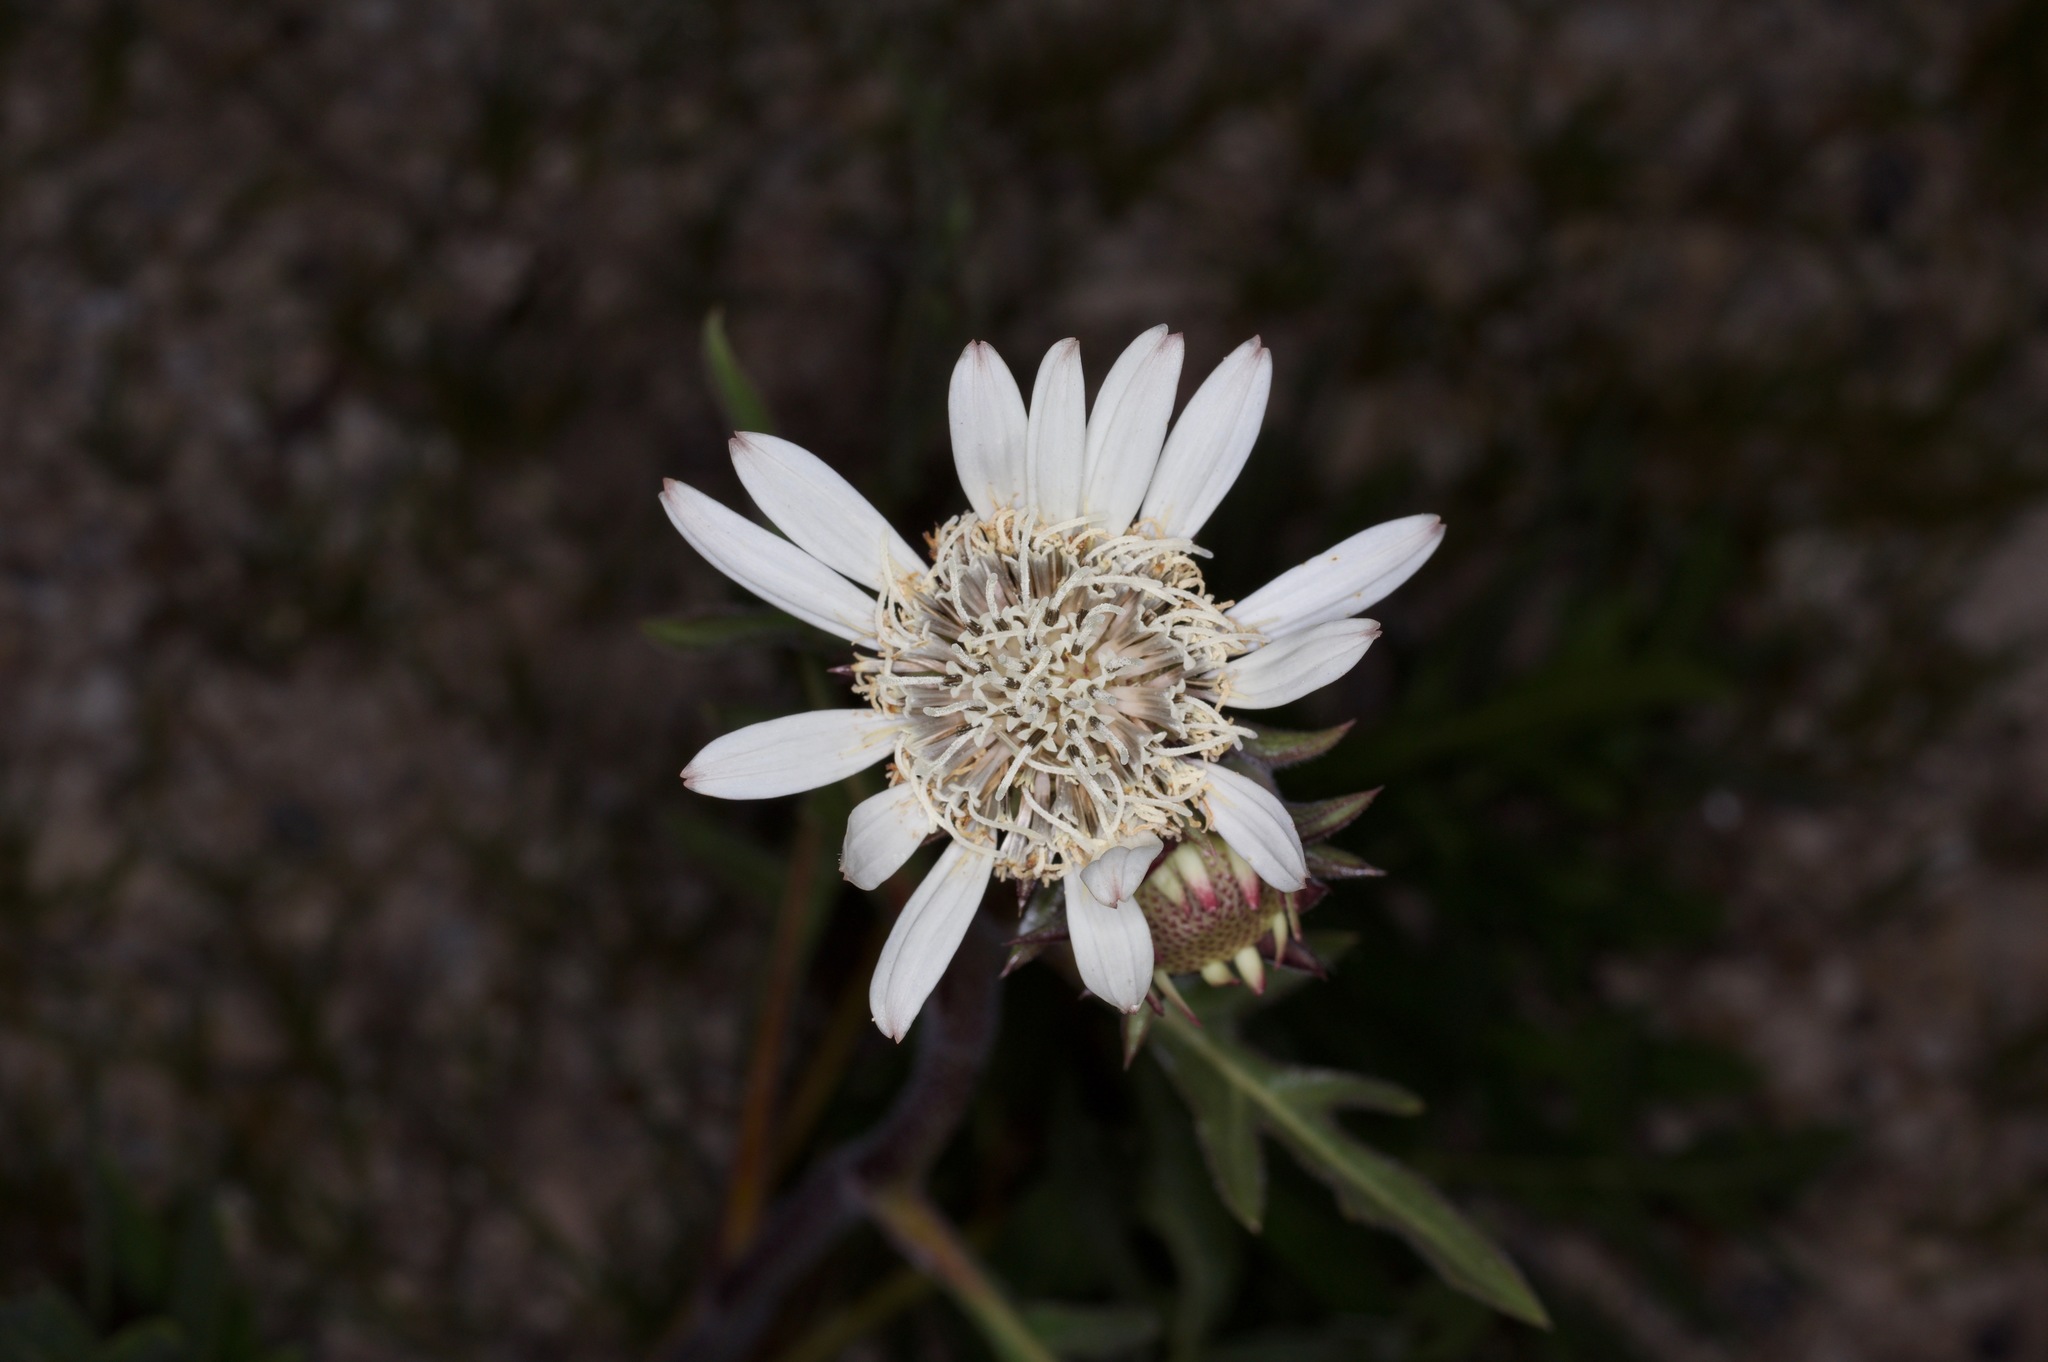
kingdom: Plantae
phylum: Tracheophyta
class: Magnoliopsida
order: Asterales
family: Asteraceae
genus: Silphium
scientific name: Silphium albiflorum
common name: White rosinweed
